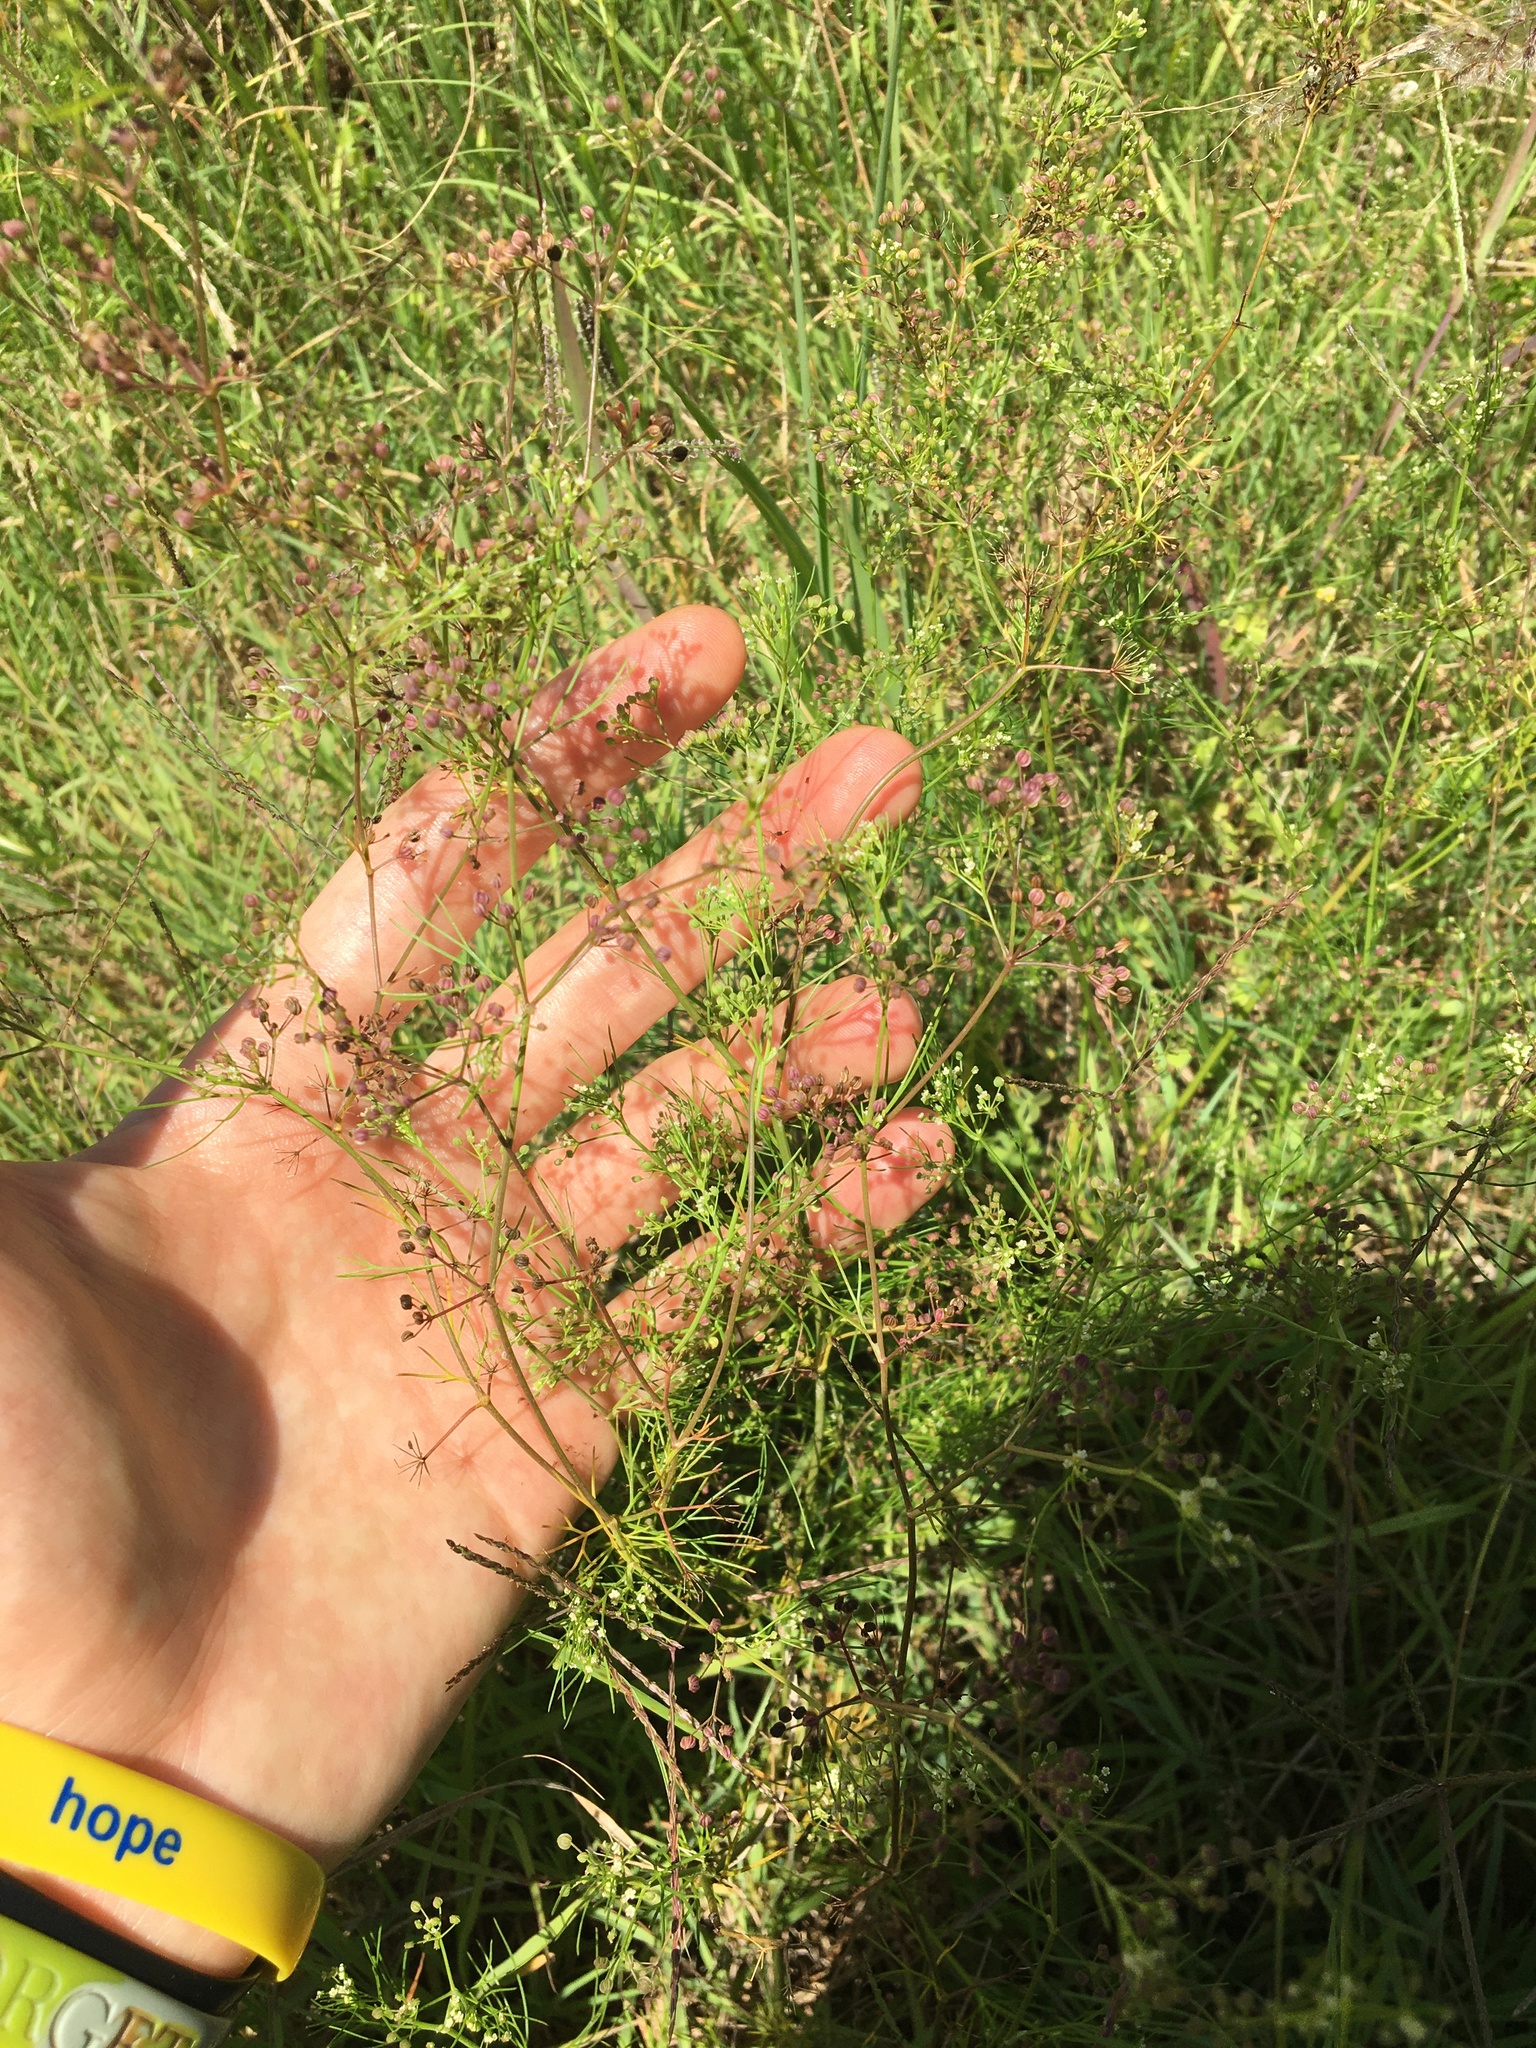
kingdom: Plantae
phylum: Tracheophyta
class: Magnoliopsida
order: Apiales
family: Apiaceae
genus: Cyclospermum
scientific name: Cyclospermum leptophyllum
